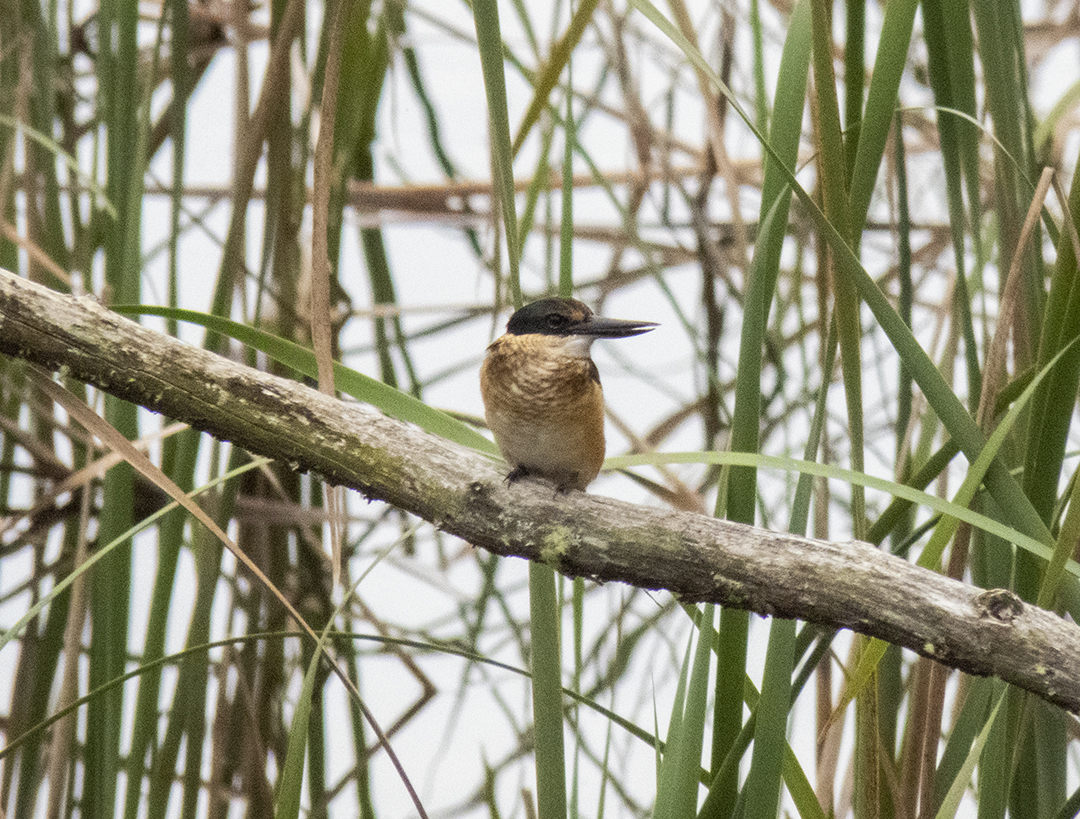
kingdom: Animalia
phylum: Chordata
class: Aves
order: Coraciiformes
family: Alcedinidae
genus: Todiramphus
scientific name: Todiramphus sanctus
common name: Sacred kingfisher
